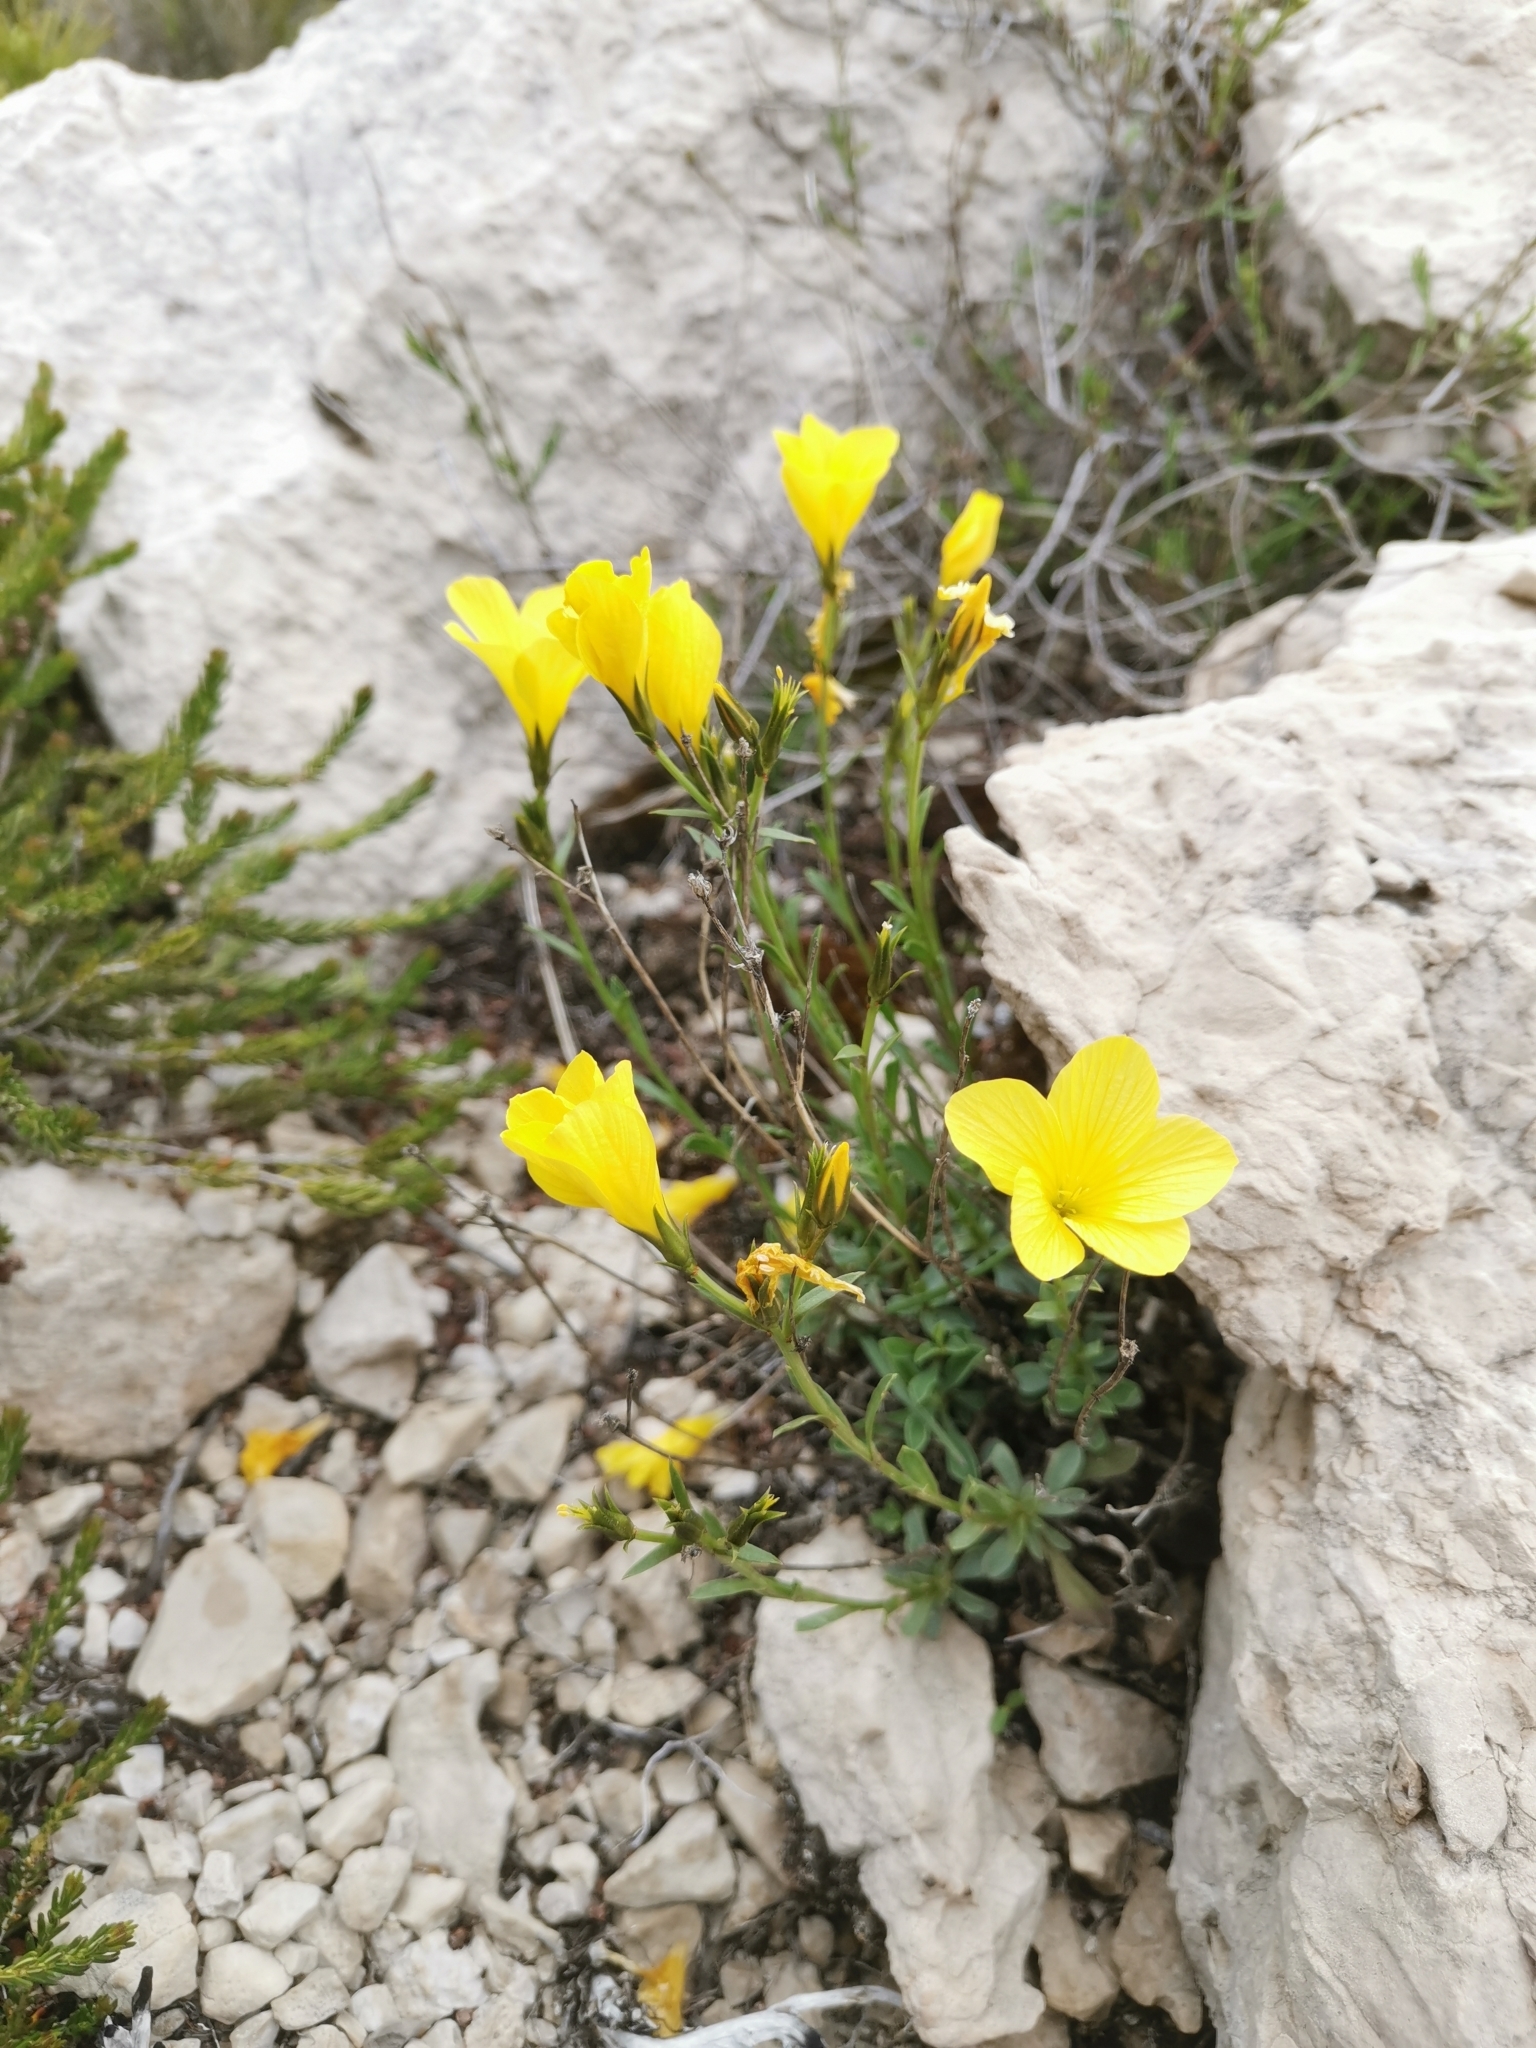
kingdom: Plantae
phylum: Tracheophyta
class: Magnoliopsida
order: Malpighiales
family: Linaceae
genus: Linum
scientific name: Linum elegans
